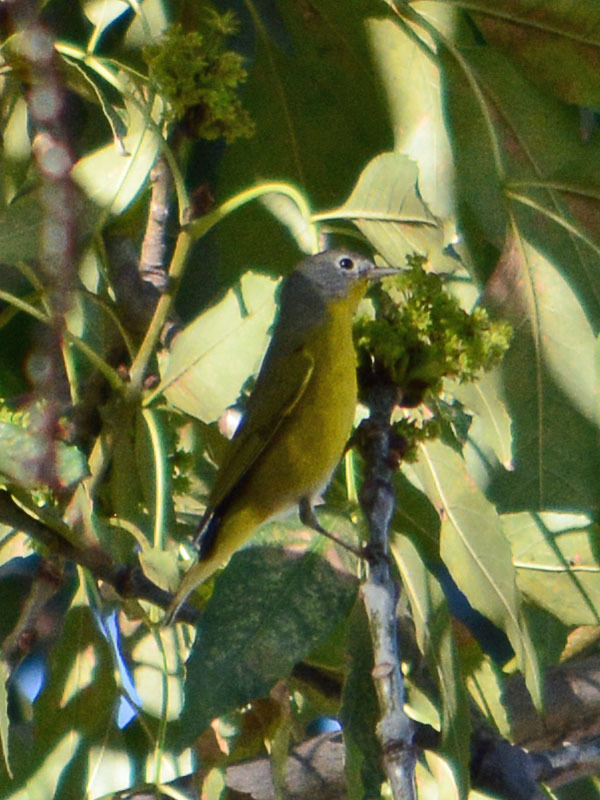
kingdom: Animalia
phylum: Chordata
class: Aves
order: Passeriformes
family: Parulidae
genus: Leiothlypis
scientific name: Leiothlypis ruficapilla
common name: Nashville warbler
